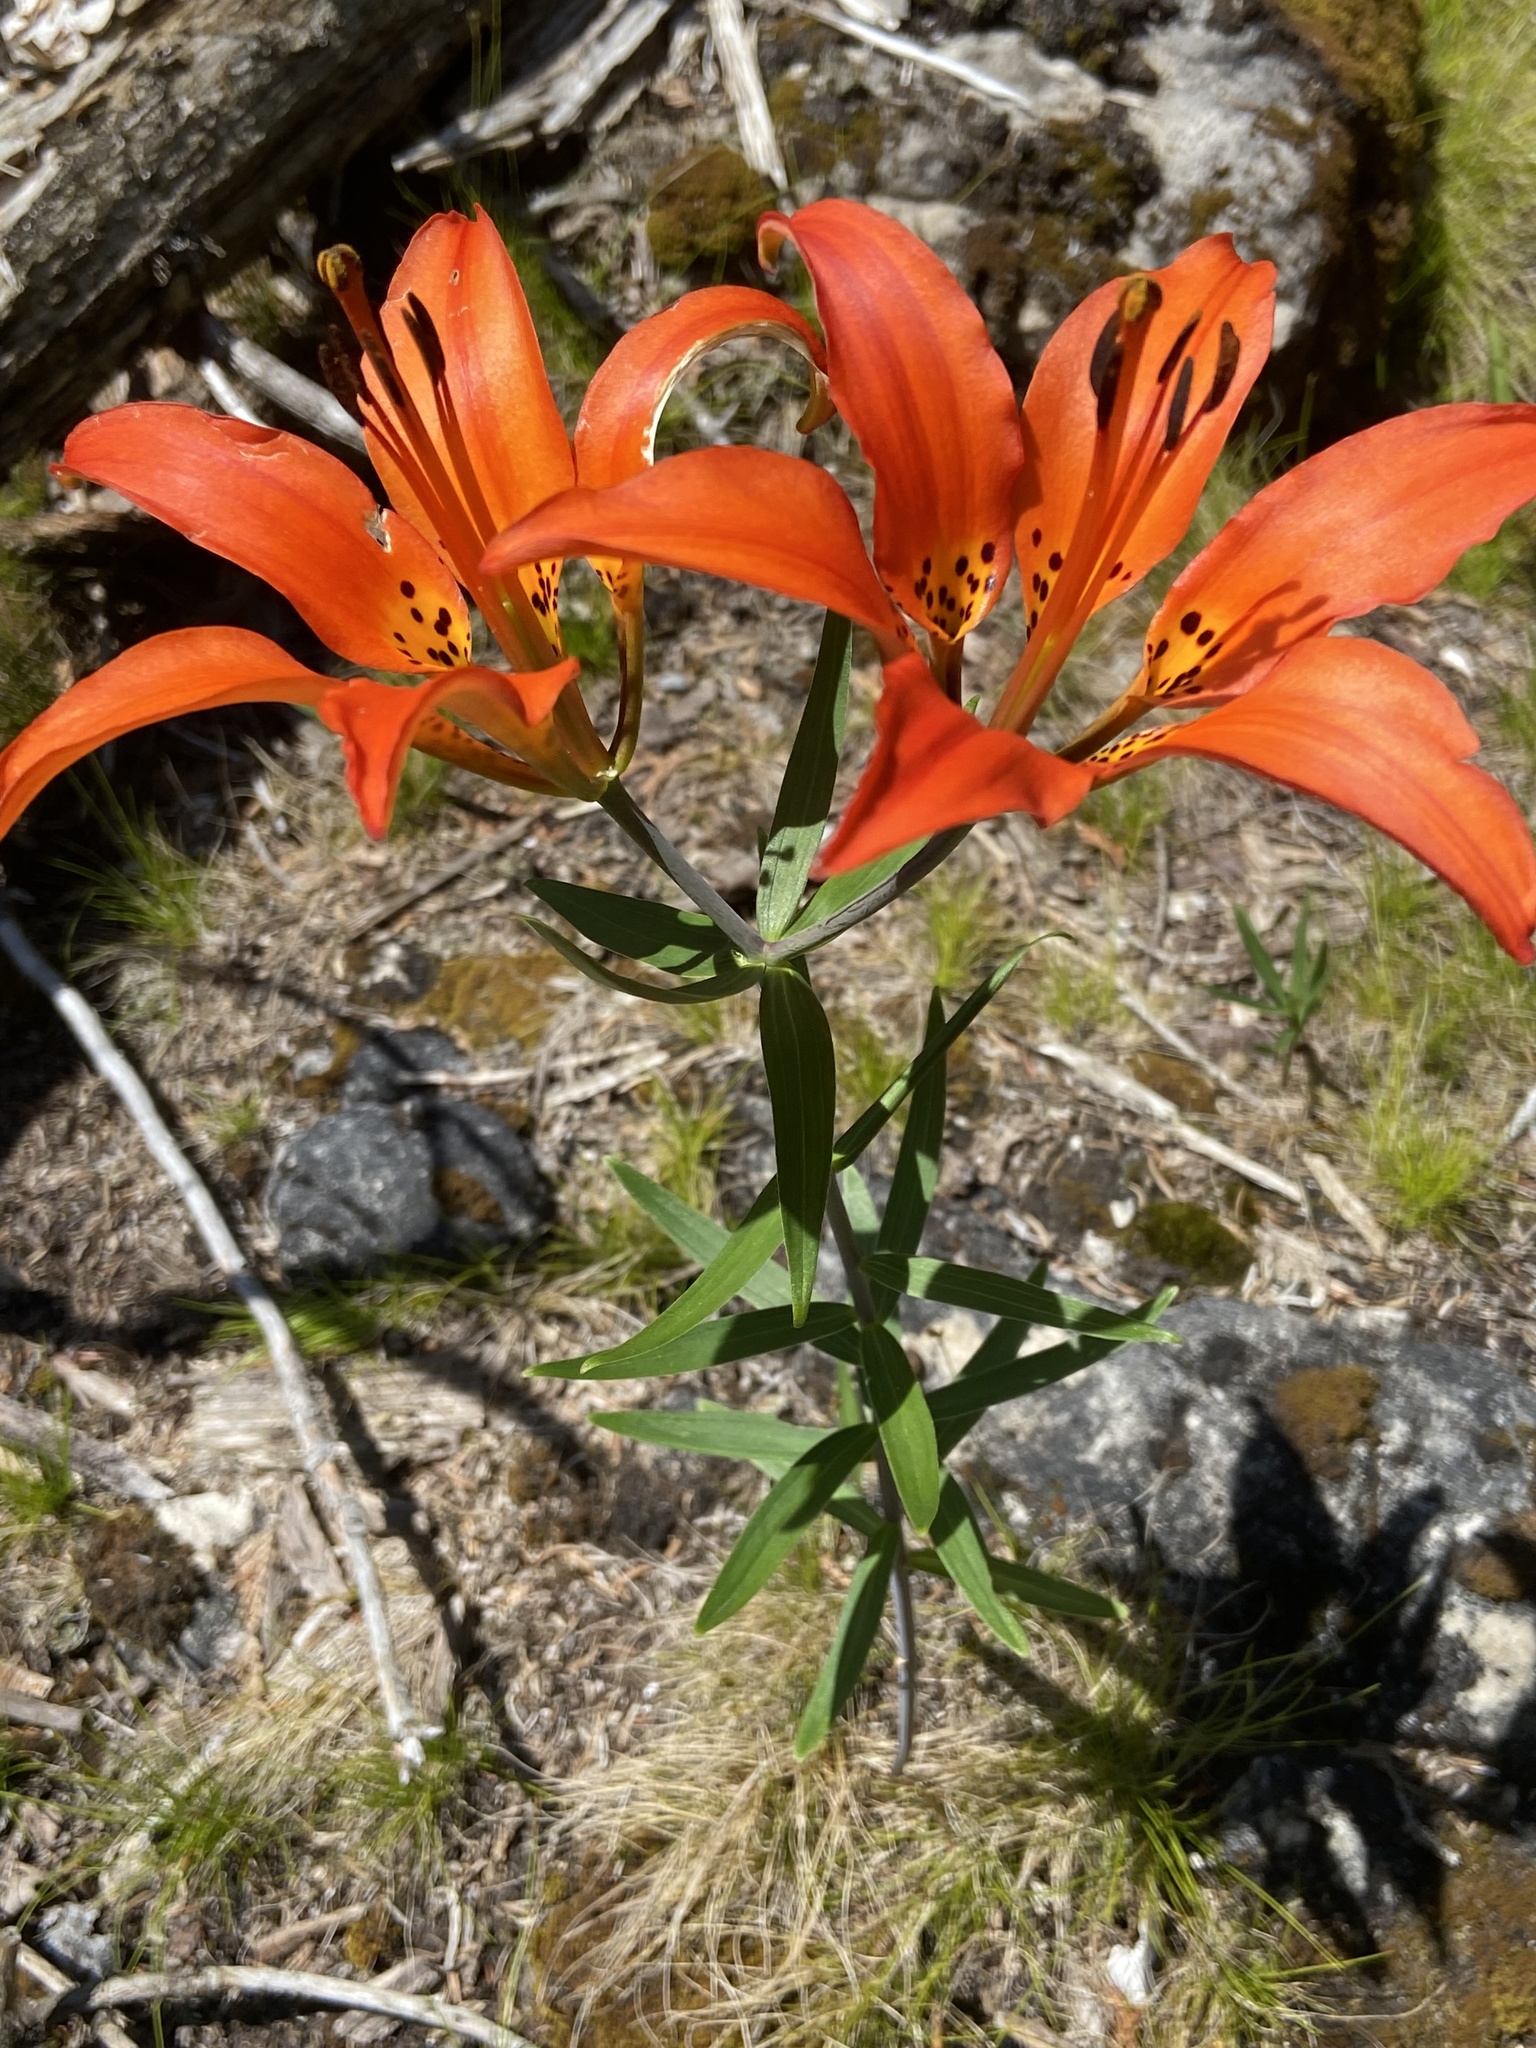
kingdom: Plantae
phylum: Tracheophyta
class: Liliopsida
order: Liliales
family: Liliaceae
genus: Lilium
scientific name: Lilium philadelphicum
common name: Red lily
